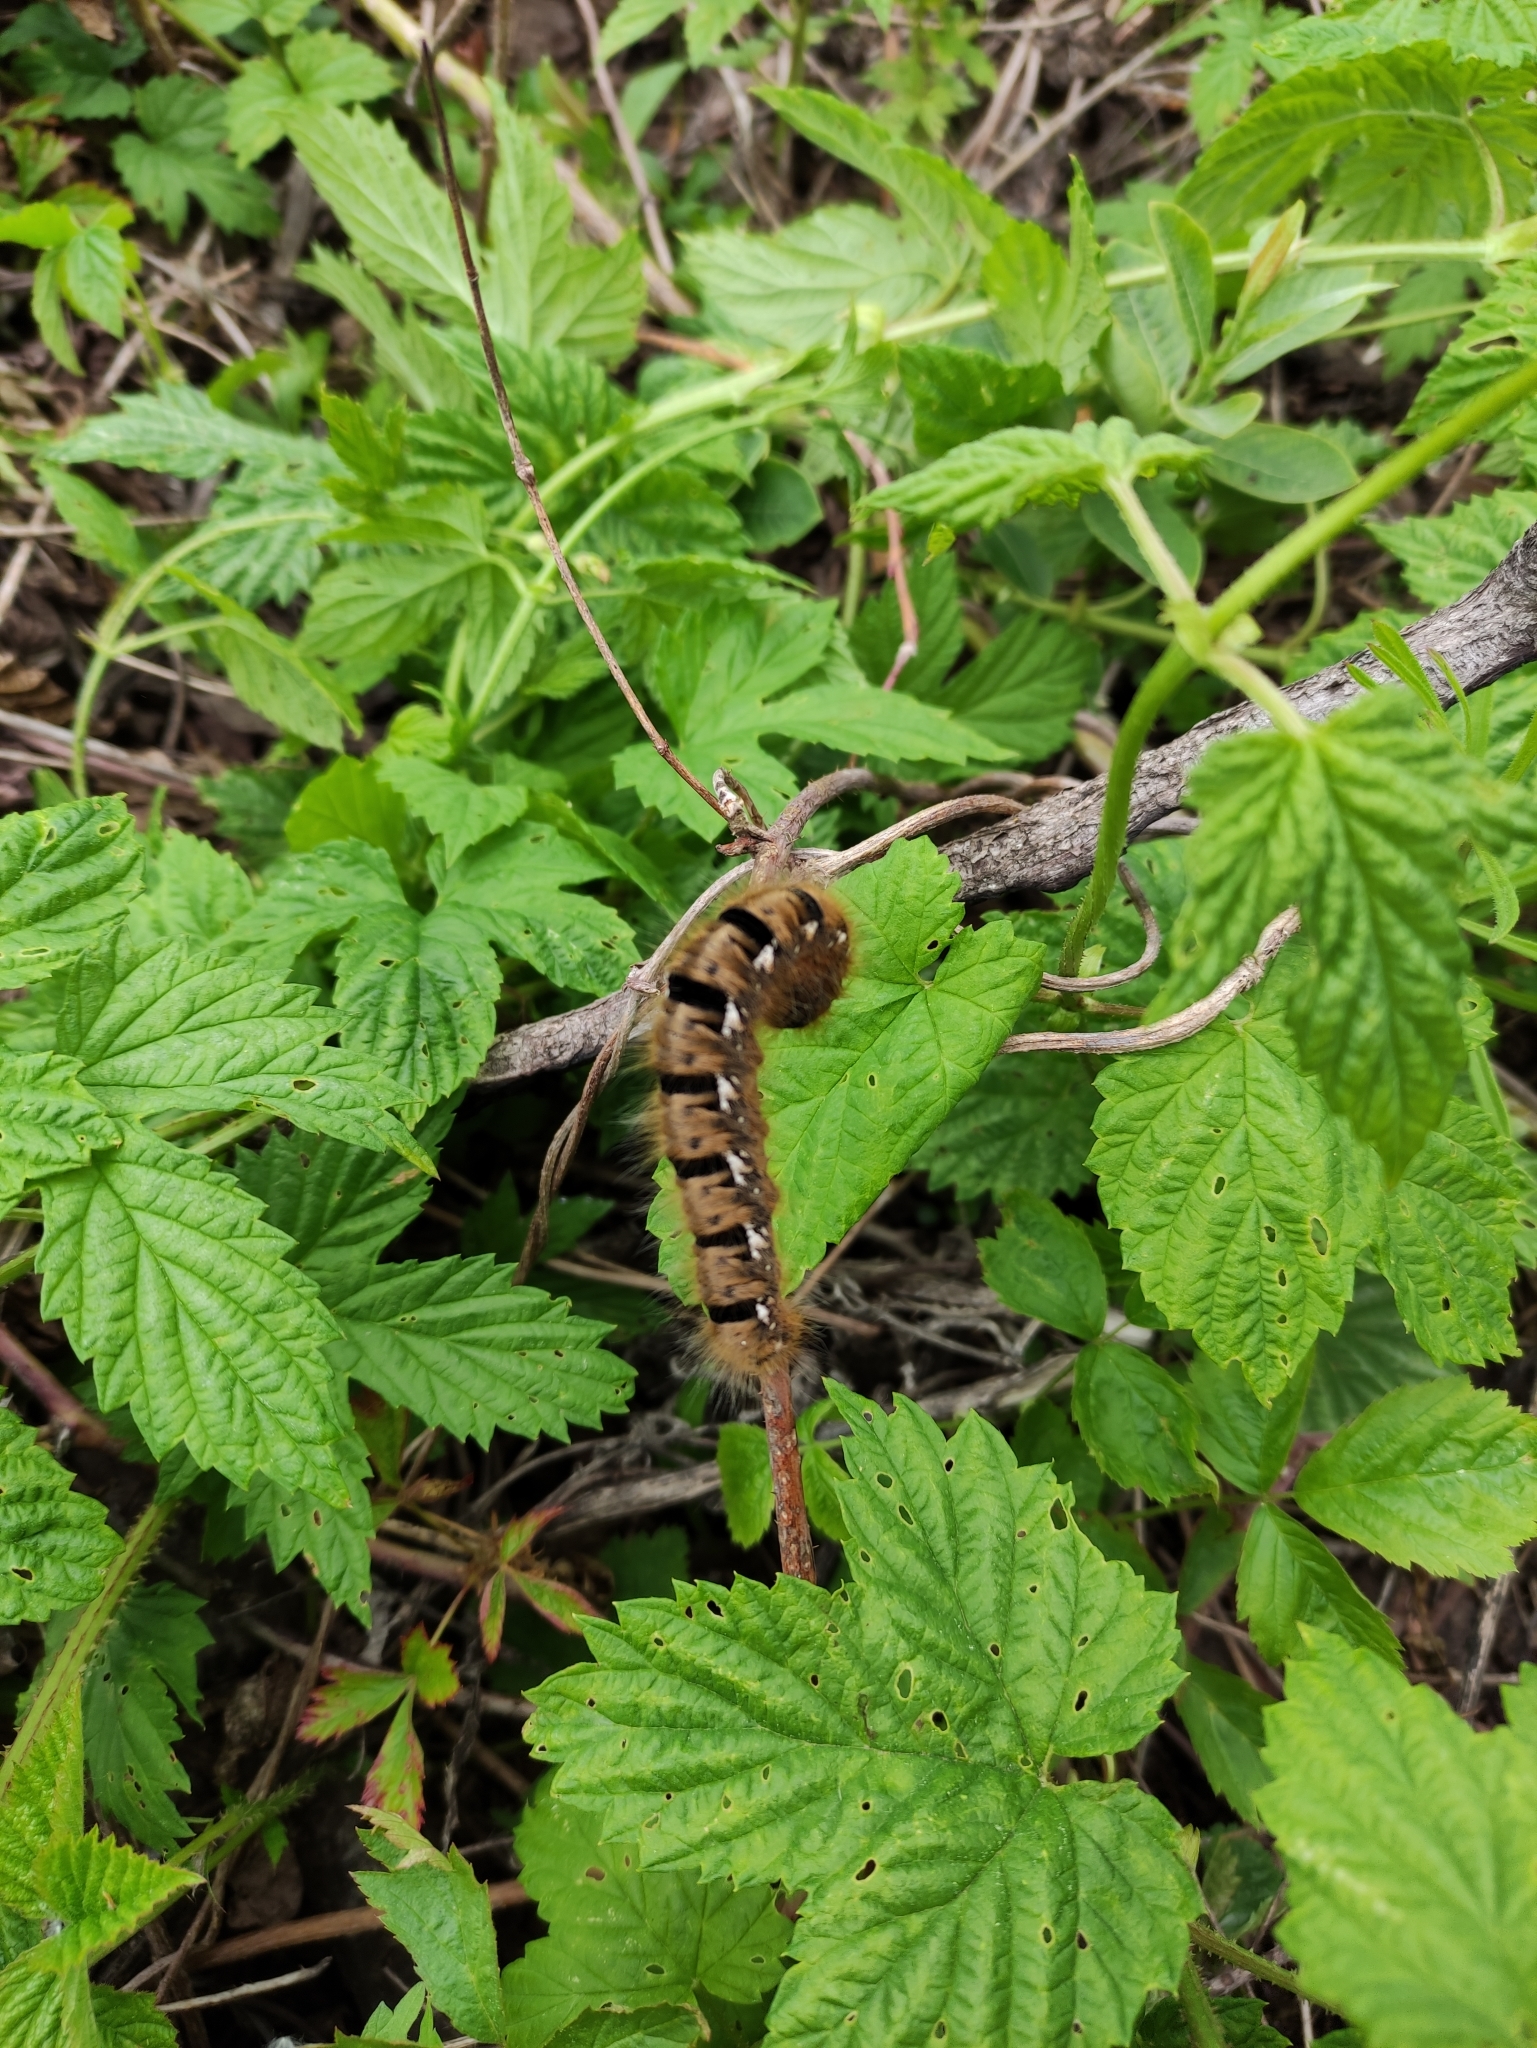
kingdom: Animalia
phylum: Arthropoda
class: Insecta
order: Lepidoptera
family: Lasiocampidae
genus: Lasiocampa
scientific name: Lasiocampa quercus
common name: Oak eggar
